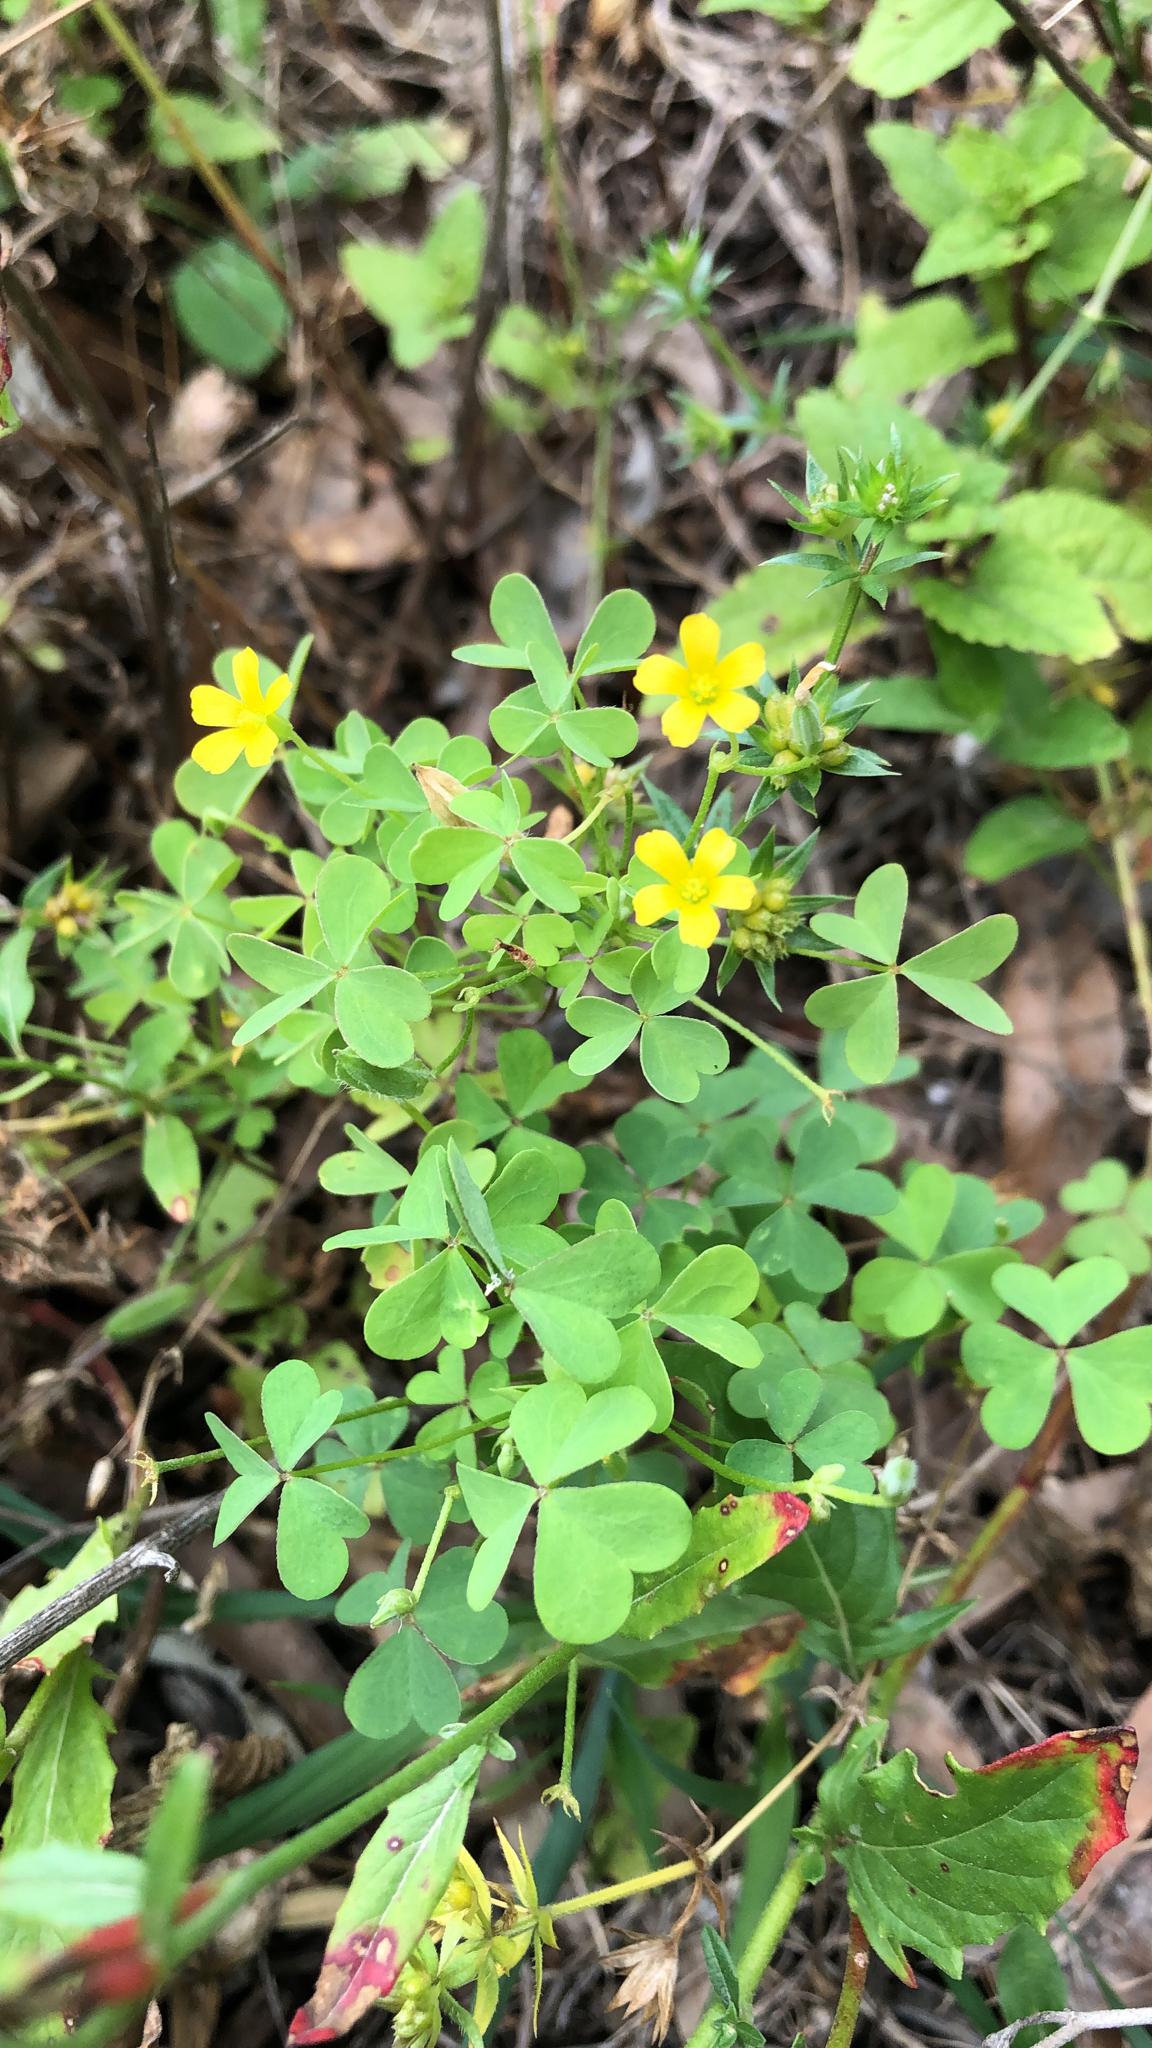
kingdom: Plantae
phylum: Tracheophyta
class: Magnoliopsida
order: Oxalidales
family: Oxalidaceae
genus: Oxalis
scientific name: Oxalis dillenii
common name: Sussex yellow-sorrel
